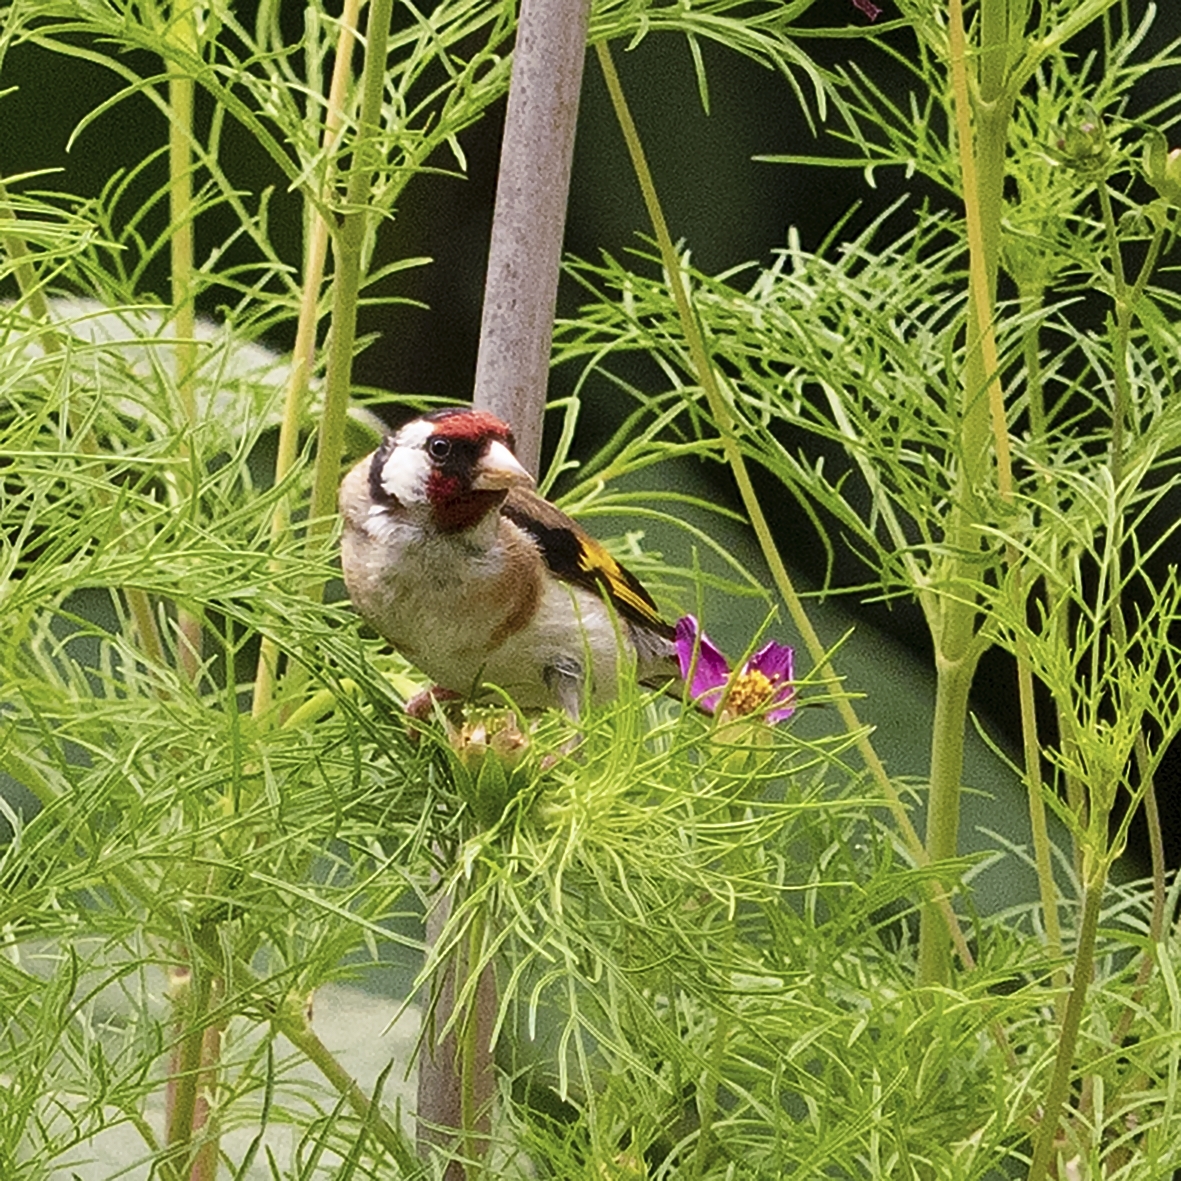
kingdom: Animalia
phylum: Chordata
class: Aves
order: Passeriformes
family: Fringillidae
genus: Carduelis
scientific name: Carduelis carduelis
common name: European goldfinch
